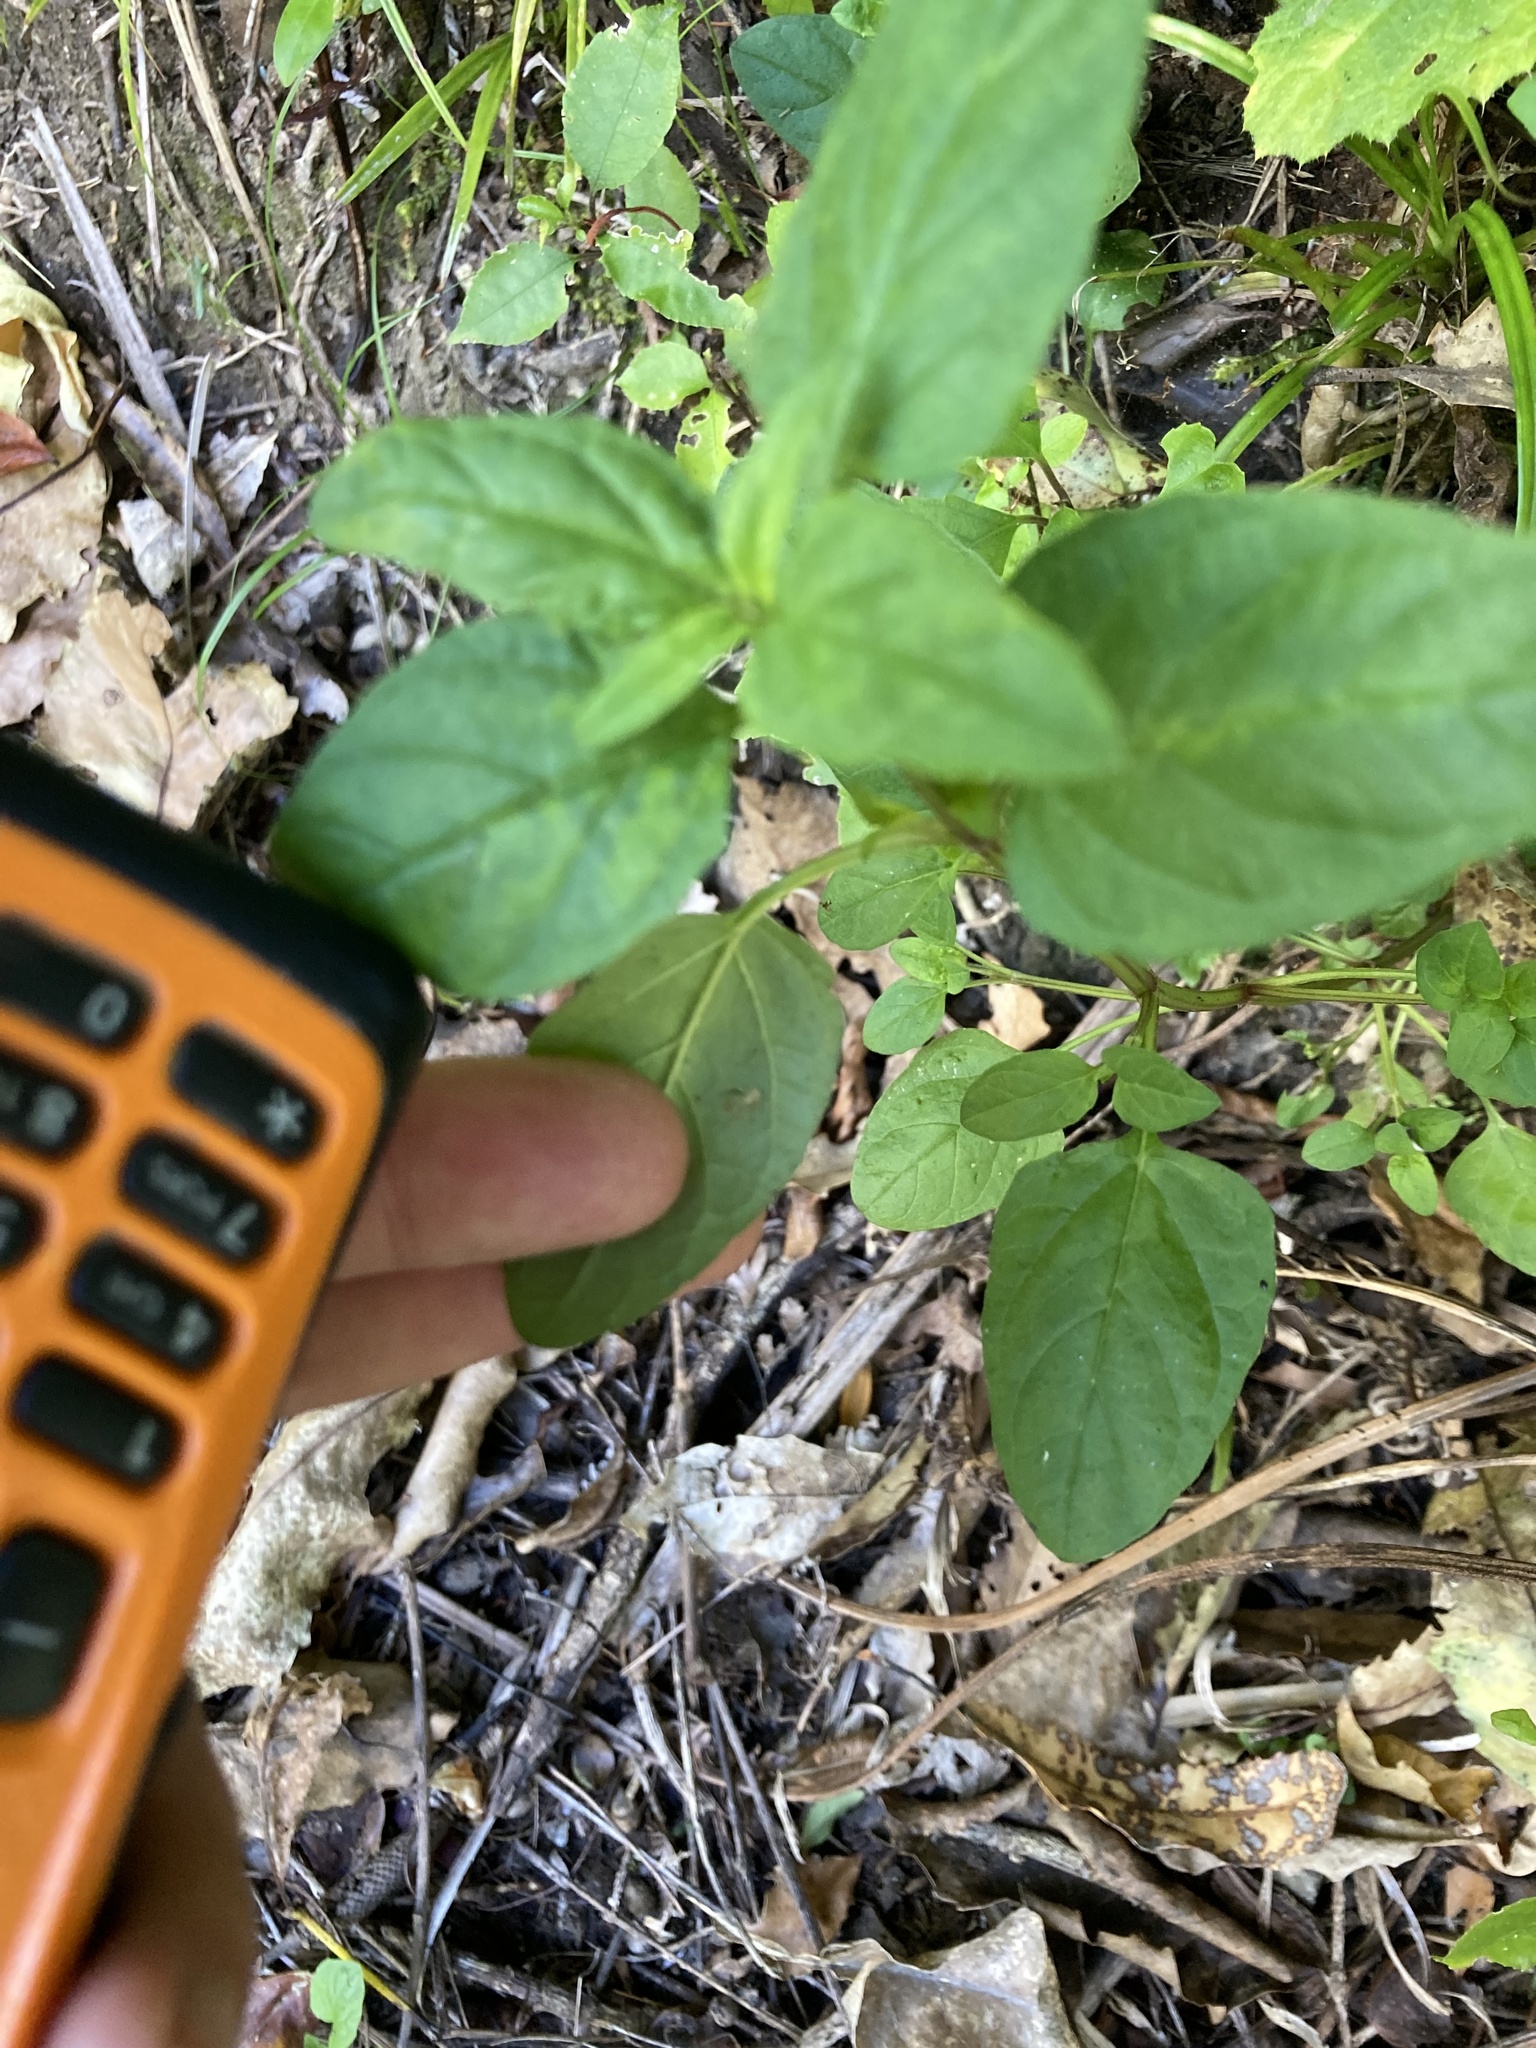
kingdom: Plantae
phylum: Tracheophyta
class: Magnoliopsida
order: Lamiales
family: Lamiaceae
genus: Prunella
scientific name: Prunella vulgaris
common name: Heal-all
